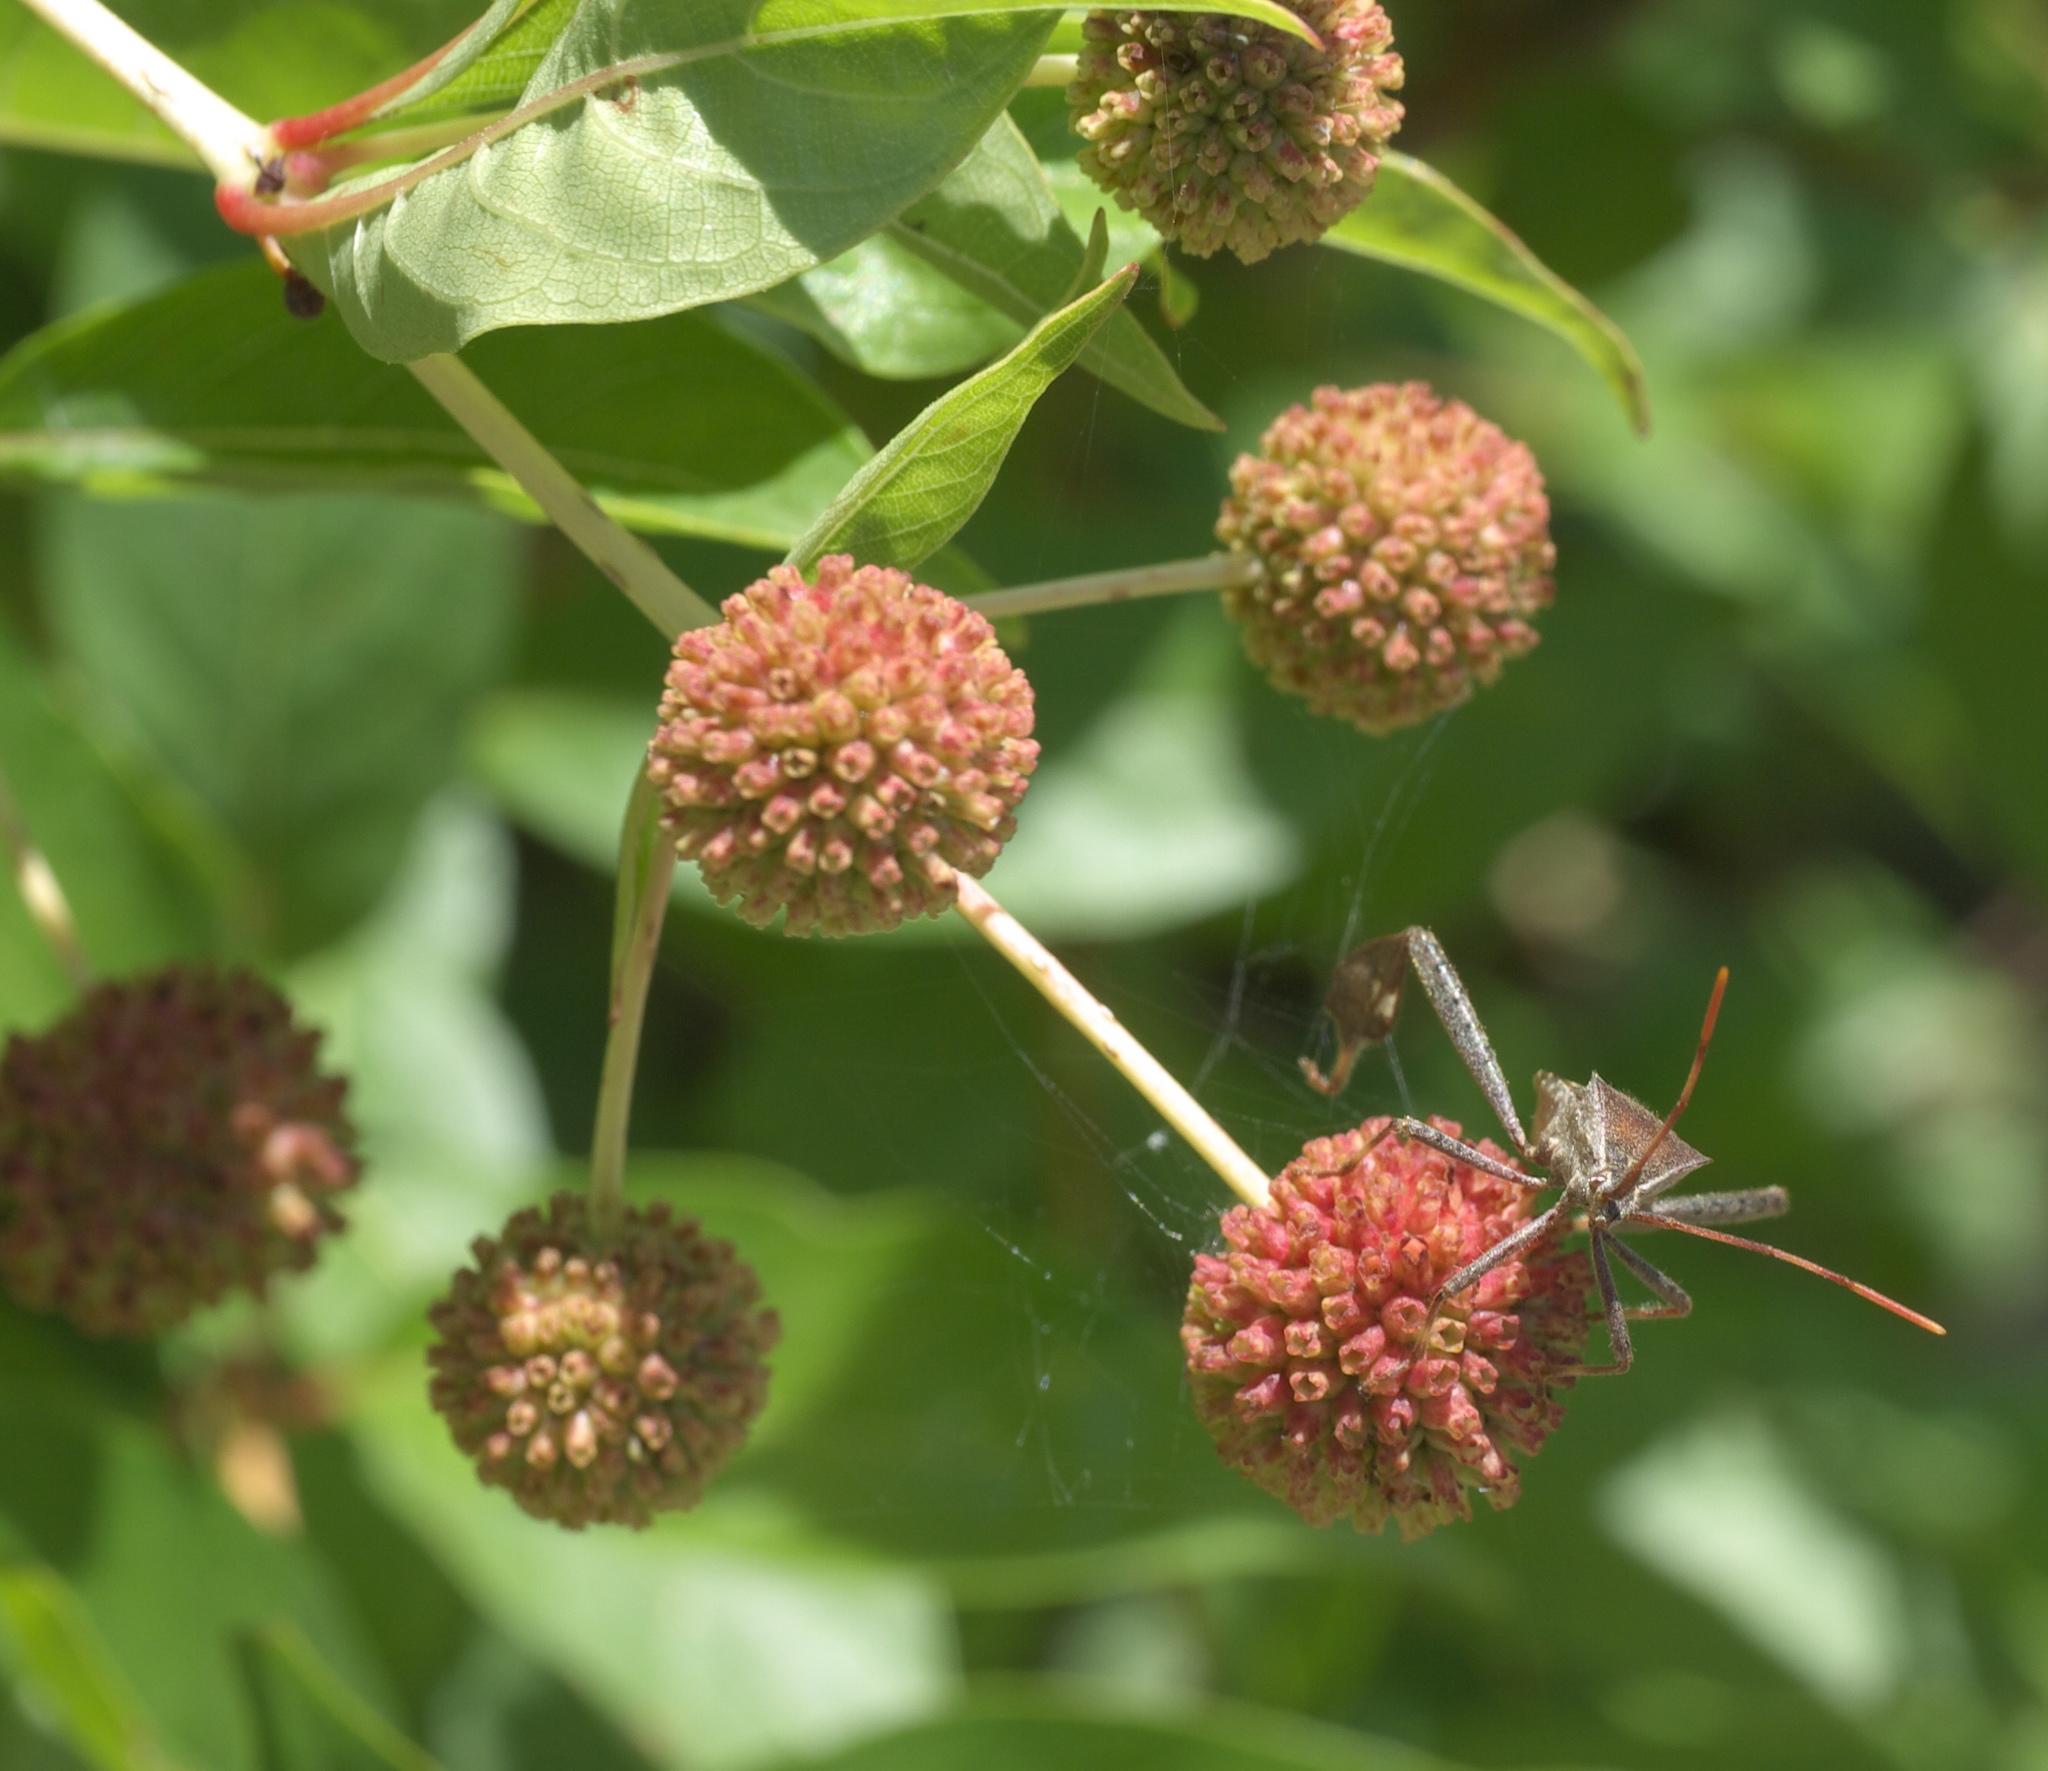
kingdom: Plantae
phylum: Tracheophyta
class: Magnoliopsida
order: Gentianales
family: Rubiaceae
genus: Cephalanthus
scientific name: Cephalanthus occidentalis
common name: Button-willow
